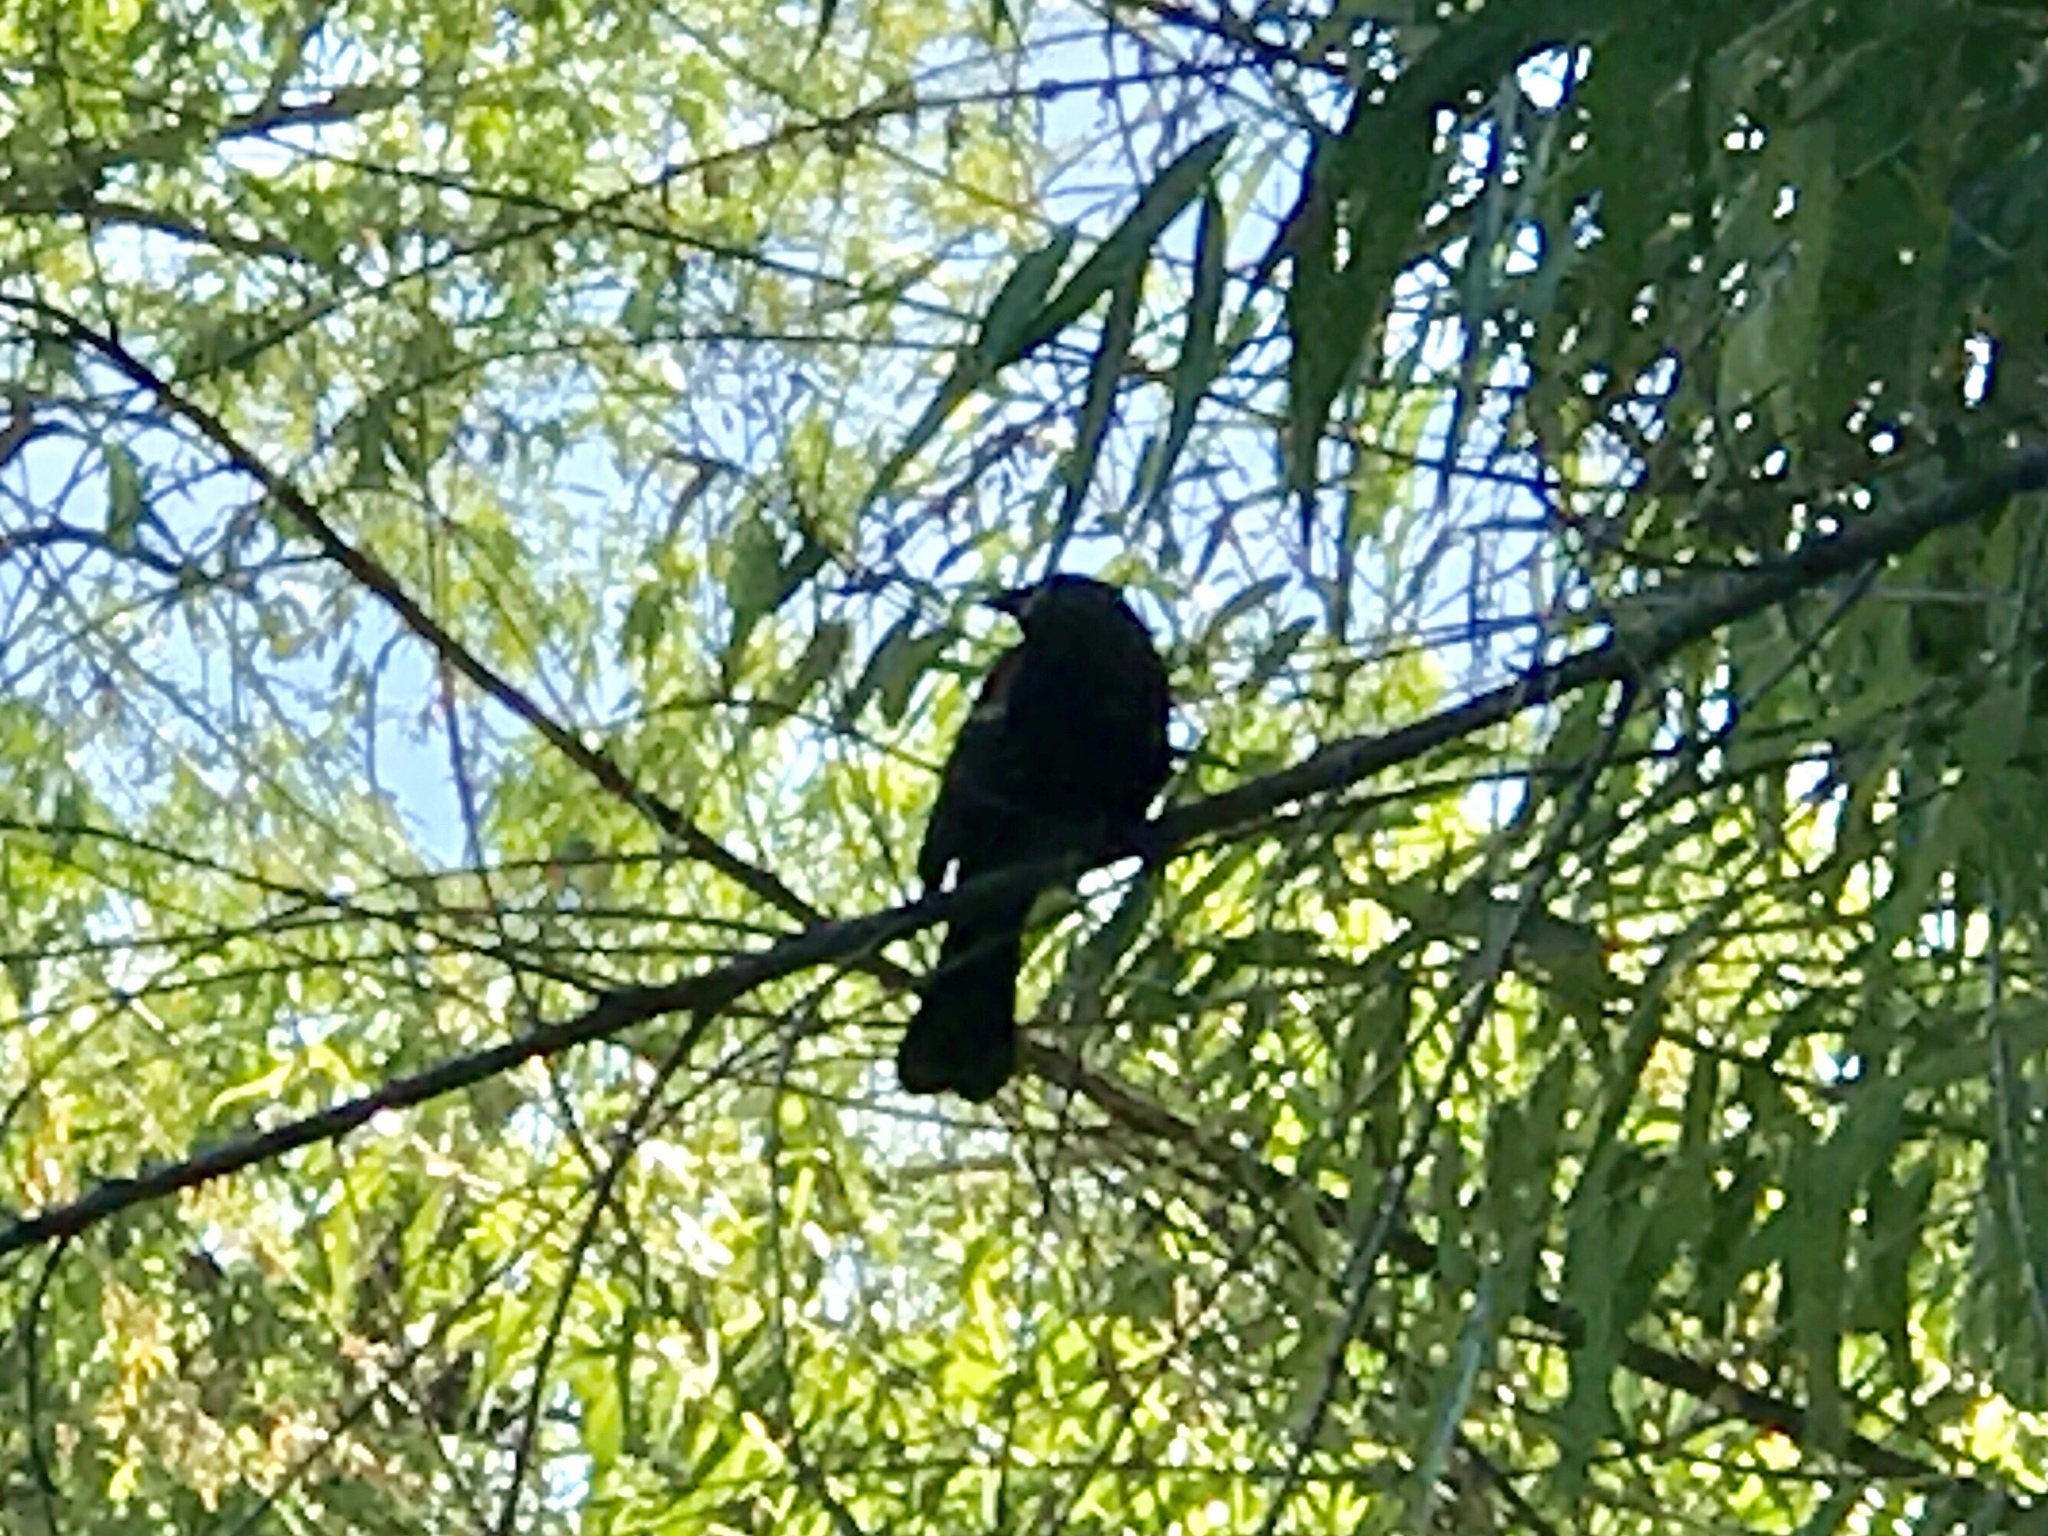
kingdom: Animalia
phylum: Chordata
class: Aves
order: Passeriformes
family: Icteridae
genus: Agelaius
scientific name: Agelaius phoeniceus
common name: Red-winged blackbird
